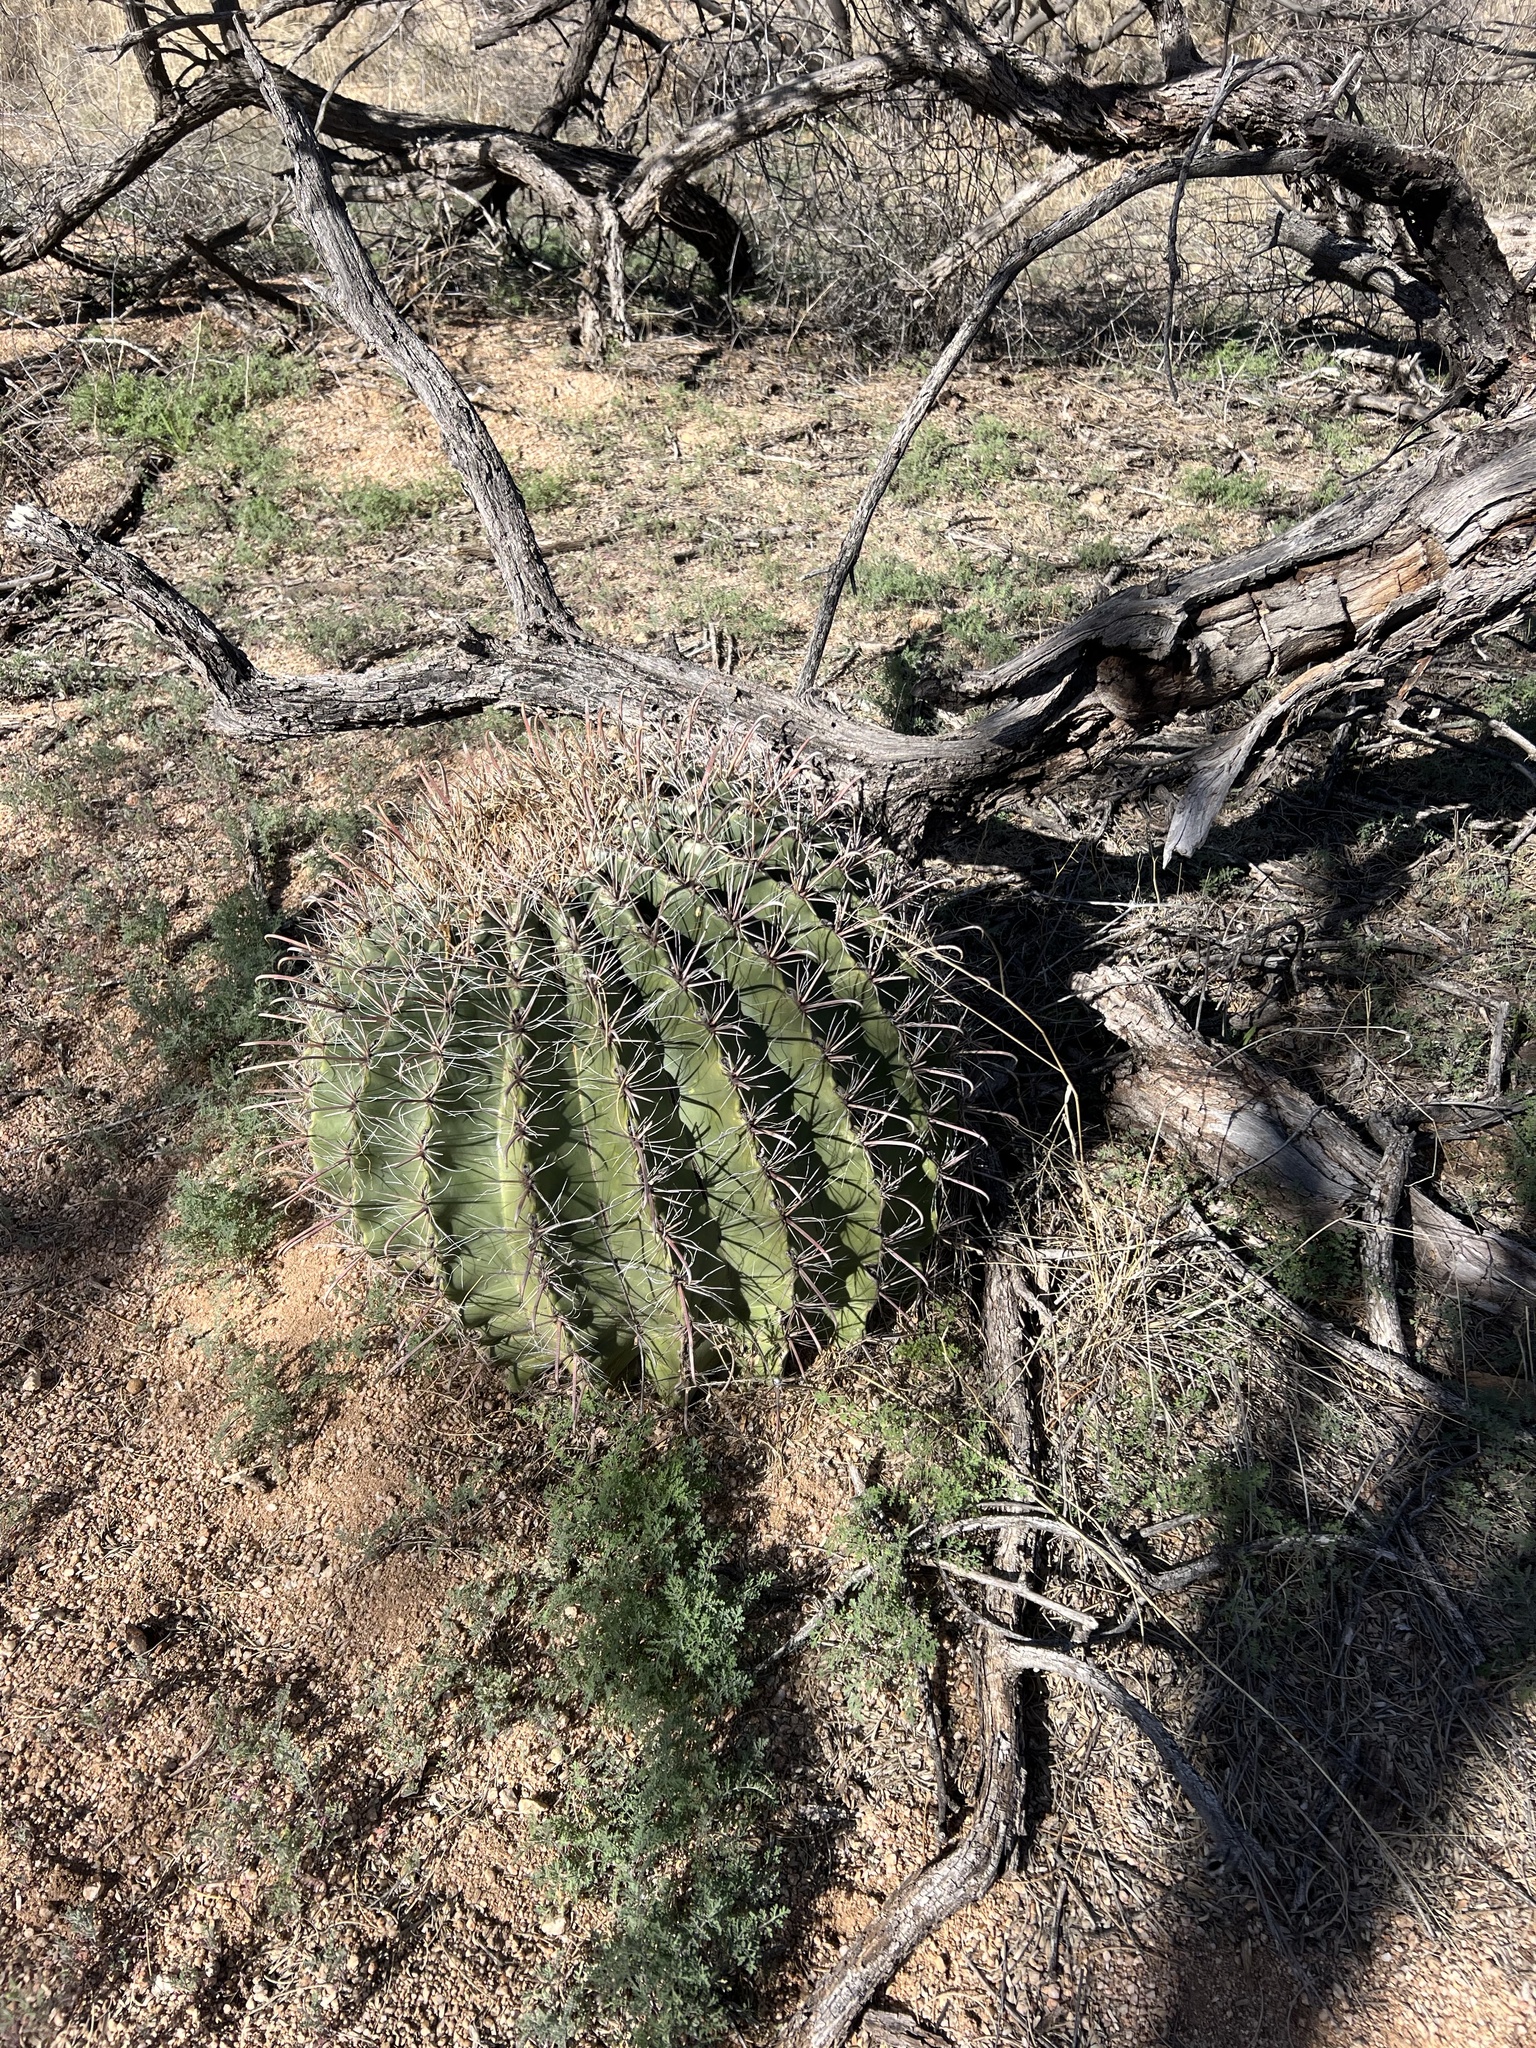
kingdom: Plantae
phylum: Tracheophyta
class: Magnoliopsida
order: Caryophyllales
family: Cactaceae
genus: Ferocactus
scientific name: Ferocactus wislizeni
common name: Candy barrel cactus
